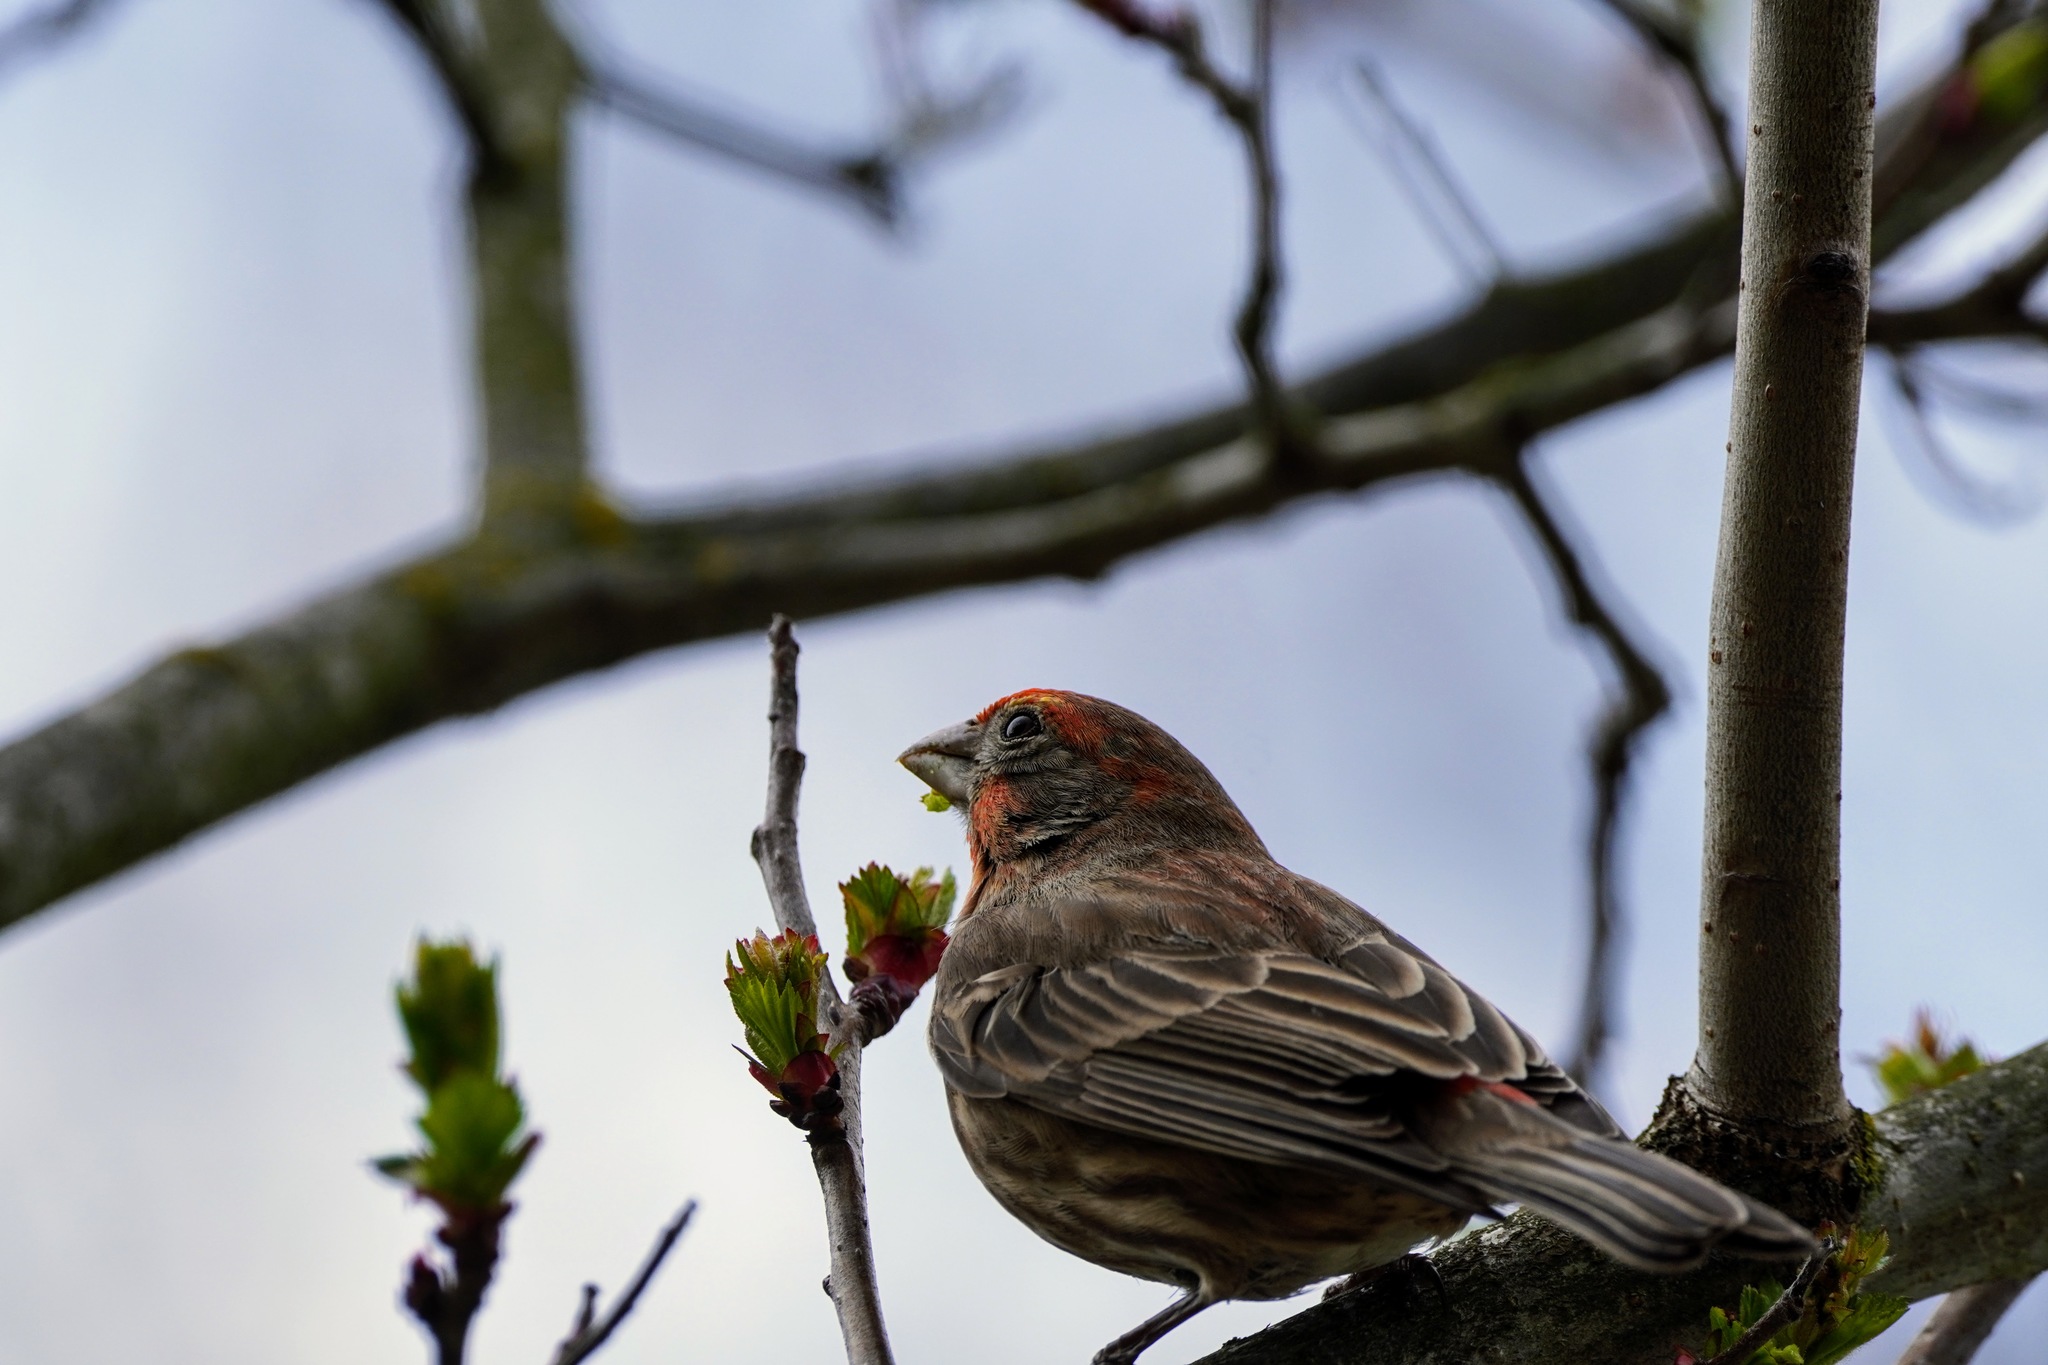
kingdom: Animalia
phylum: Chordata
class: Aves
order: Passeriformes
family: Fringillidae
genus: Haemorhous
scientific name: Haemorhous mexicanus
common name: House finch
